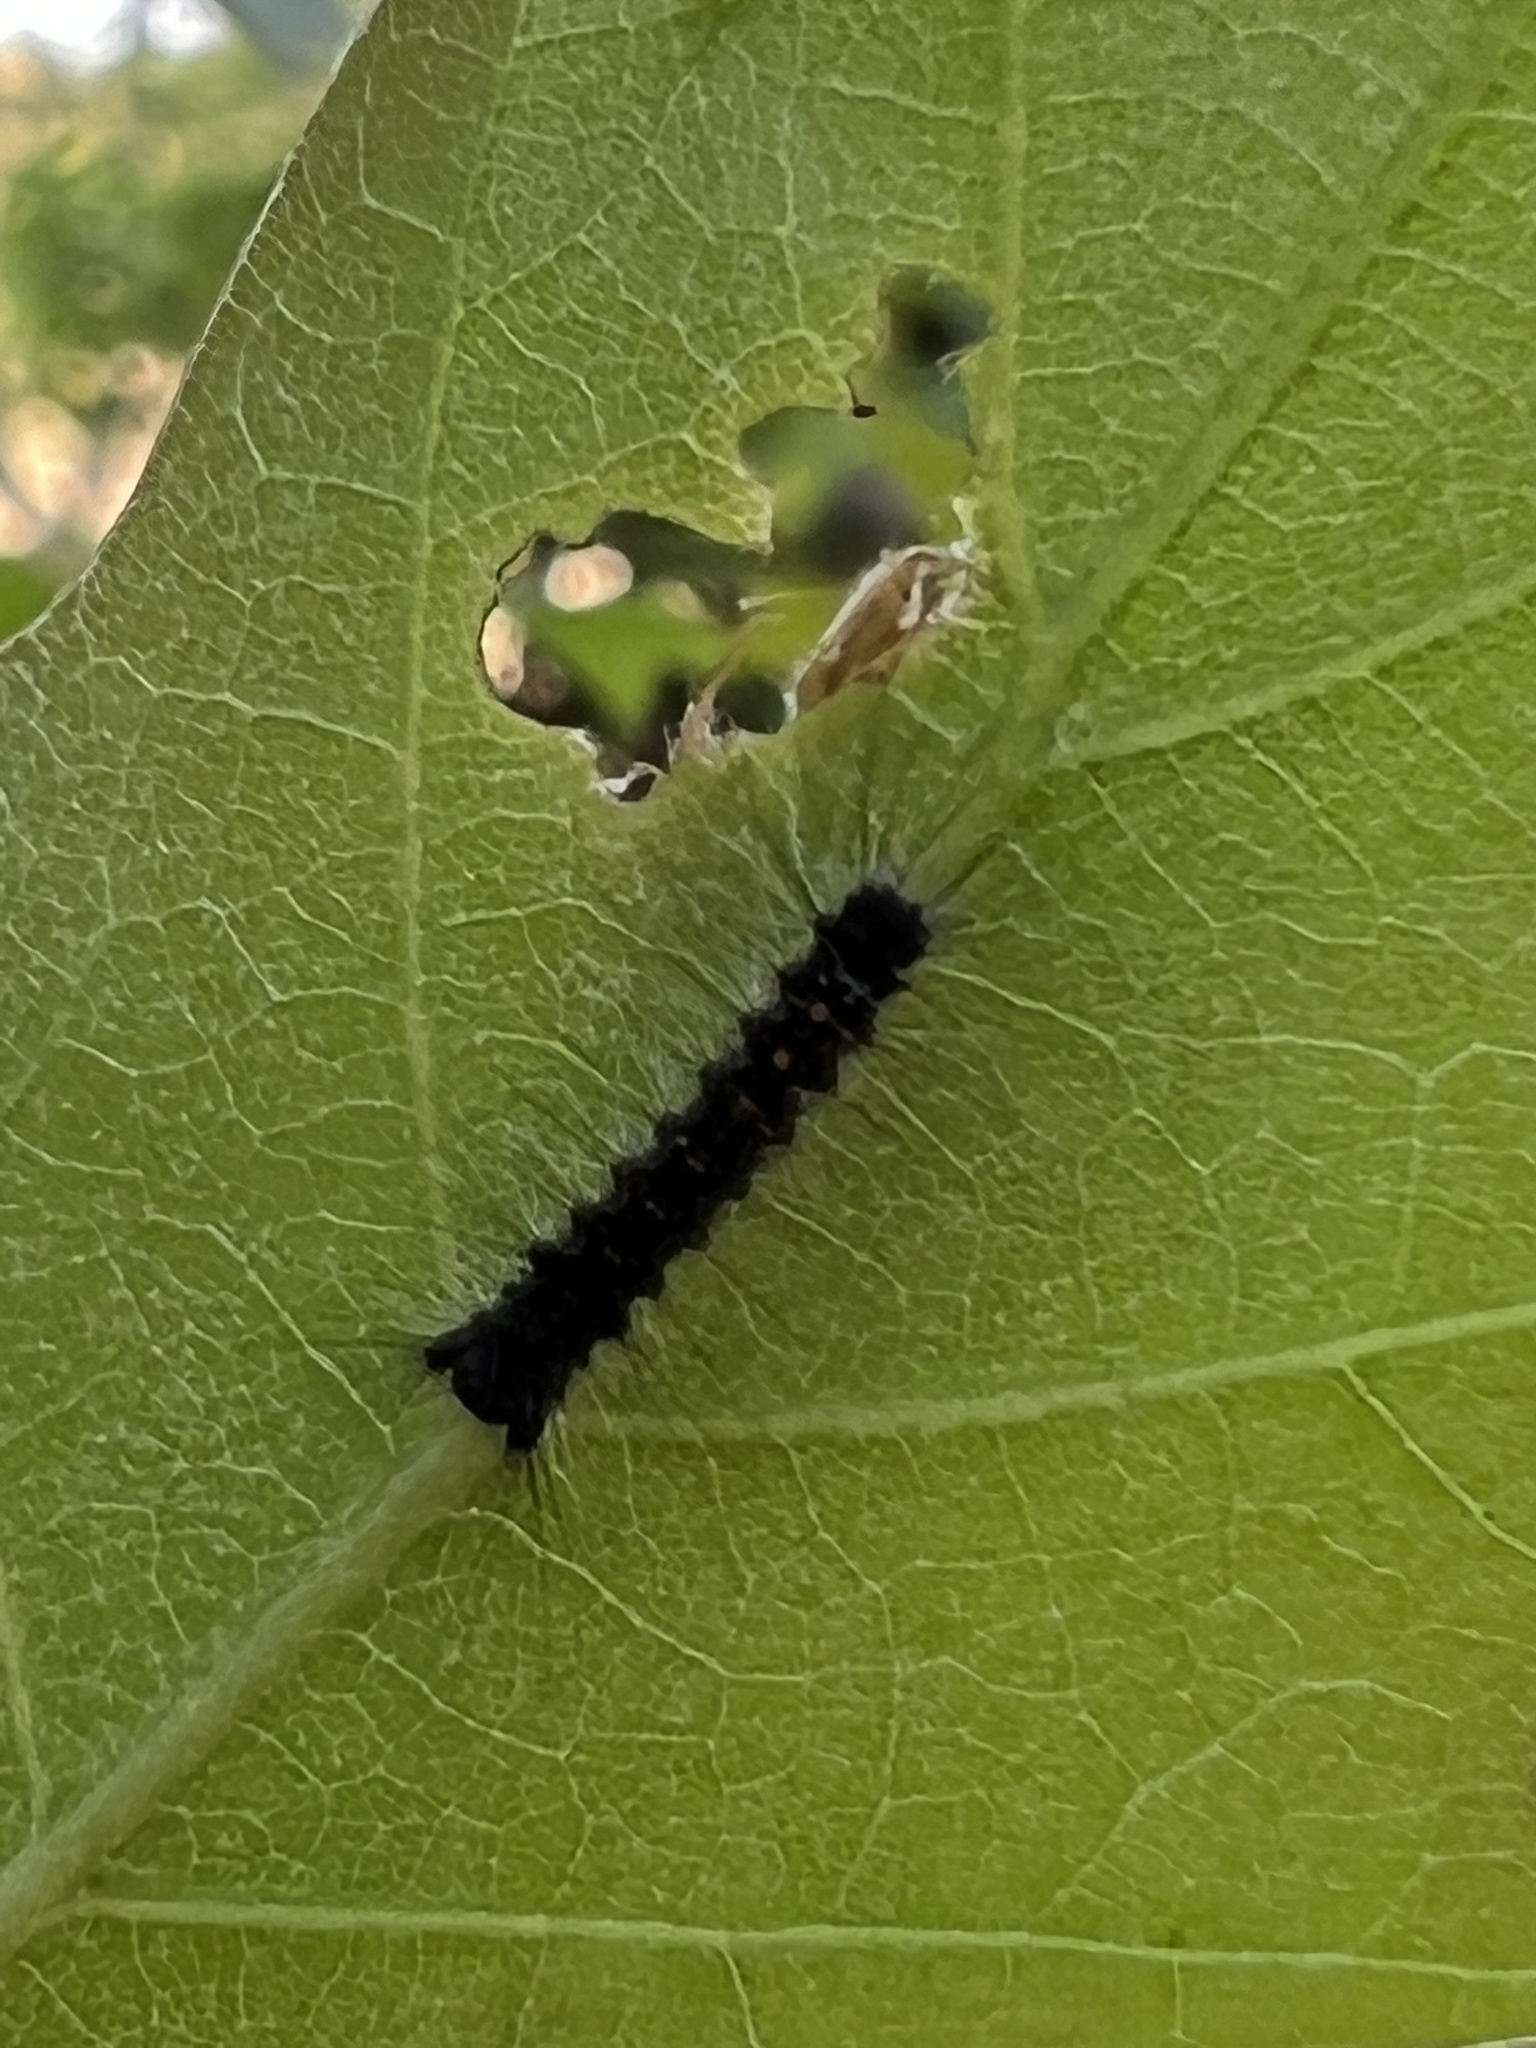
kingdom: Animalia
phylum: Arthropoda
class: Insecta
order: Lepidoptera
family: Erebidae
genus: Lymantria
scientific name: Lymantria dispar
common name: Gypsy moth
